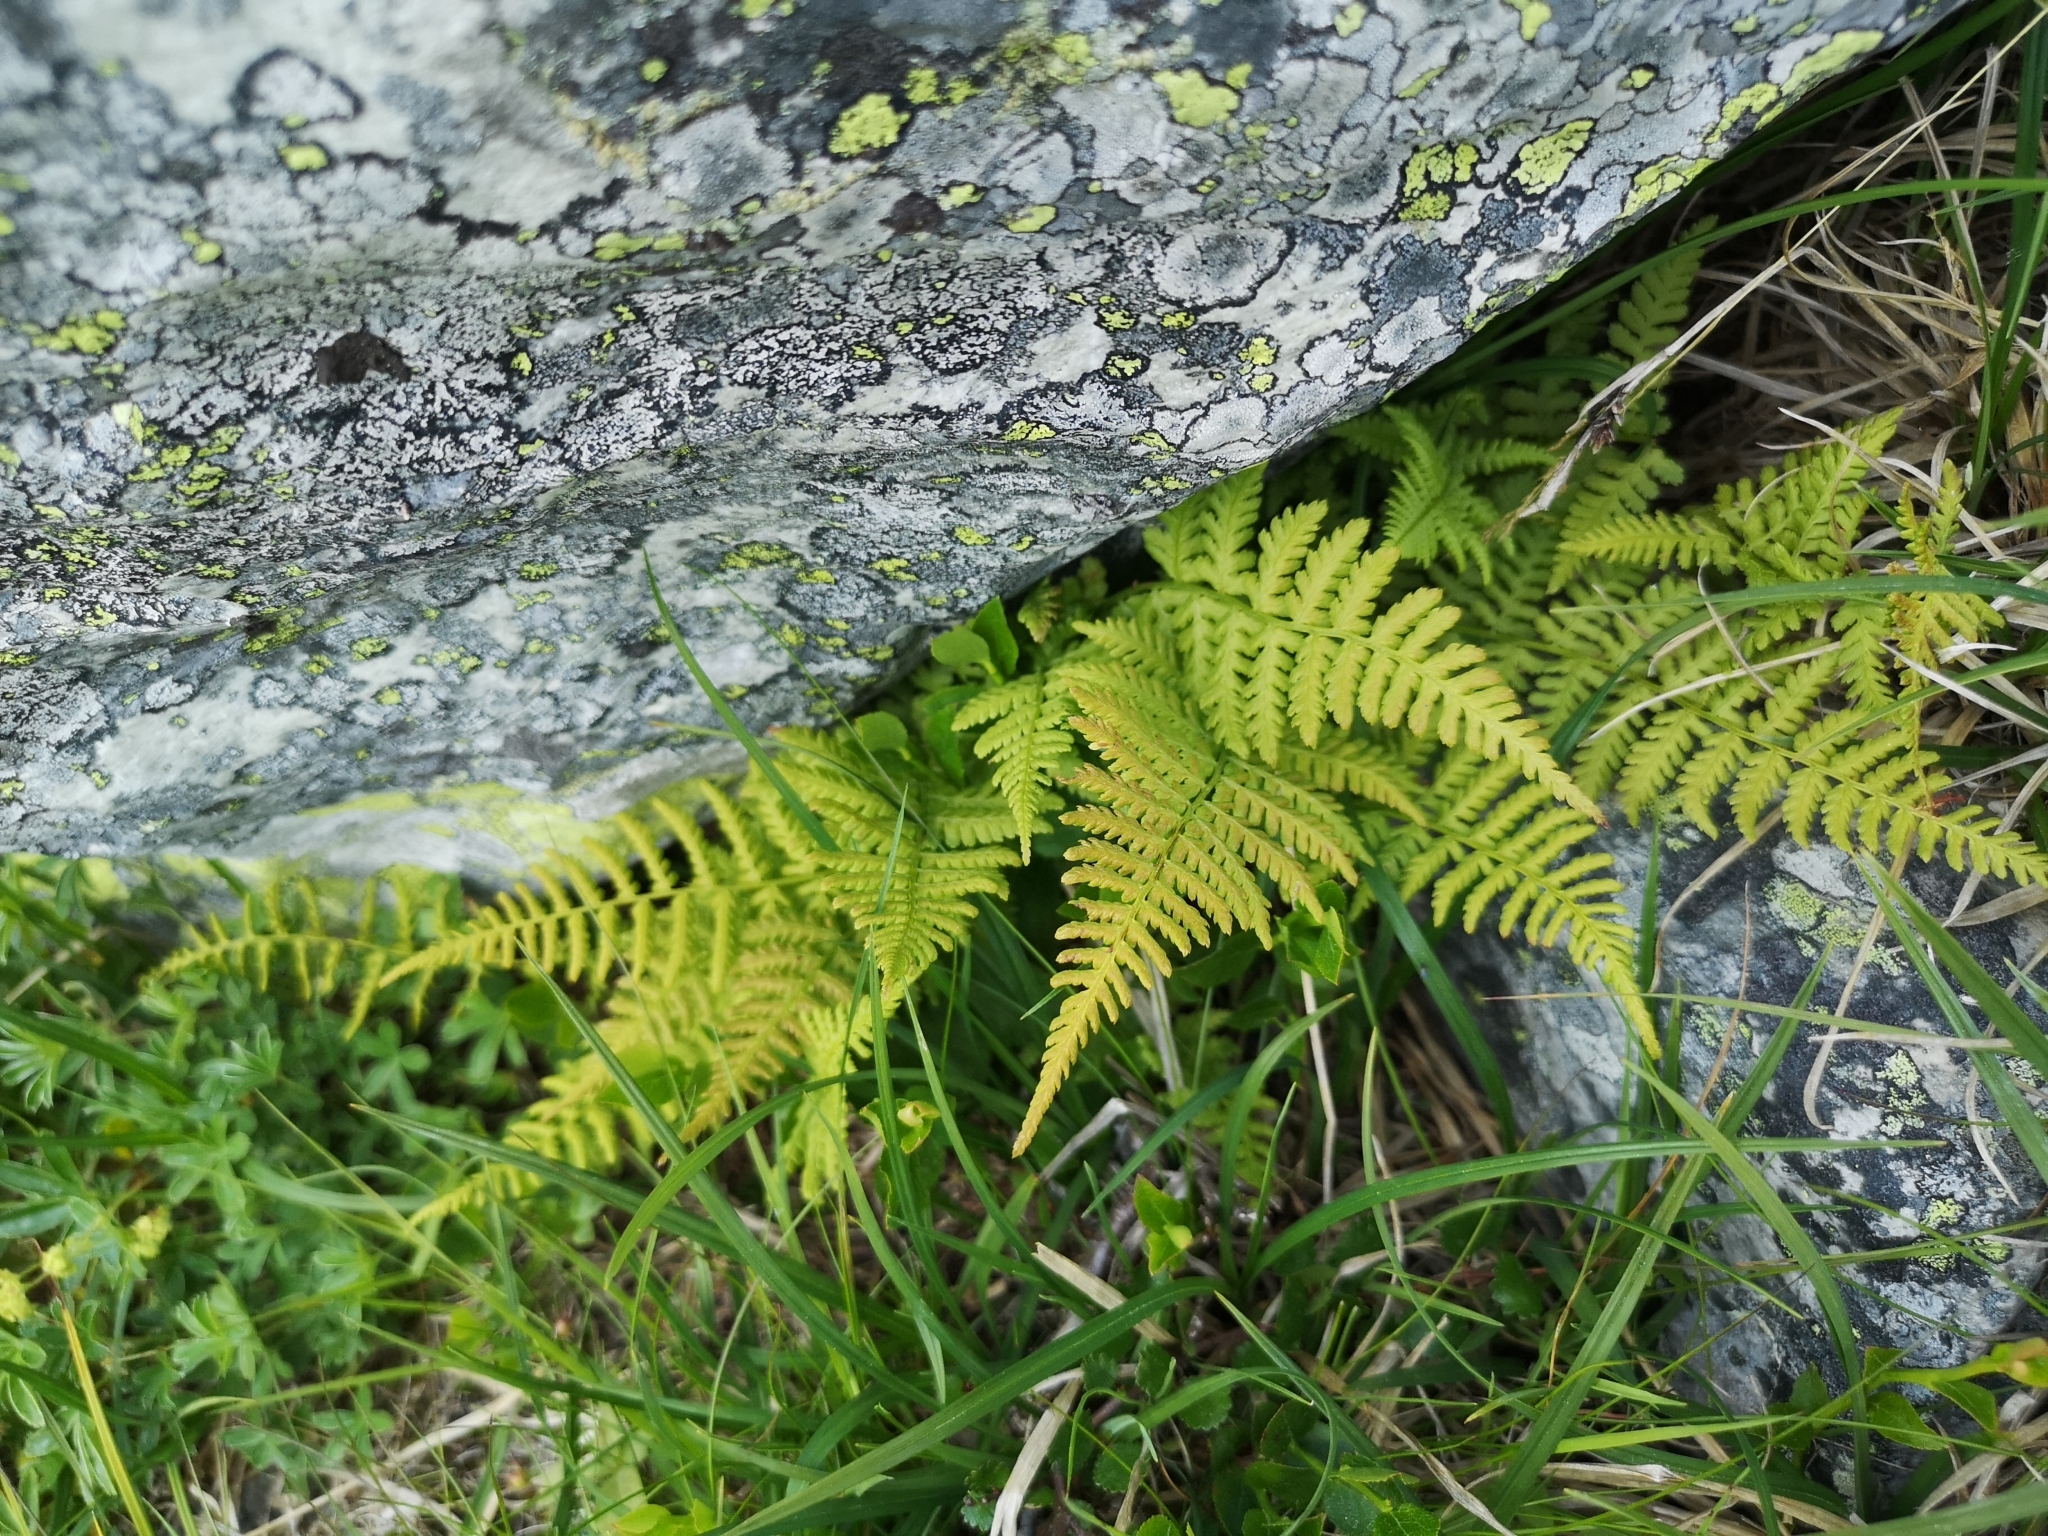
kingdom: Plantae
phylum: Tracheophyta
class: Polypodiopsida
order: Polypodiales
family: Thelypteridaceae
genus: Phegopteris
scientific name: Phegopteris connectilis
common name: Beech fern
